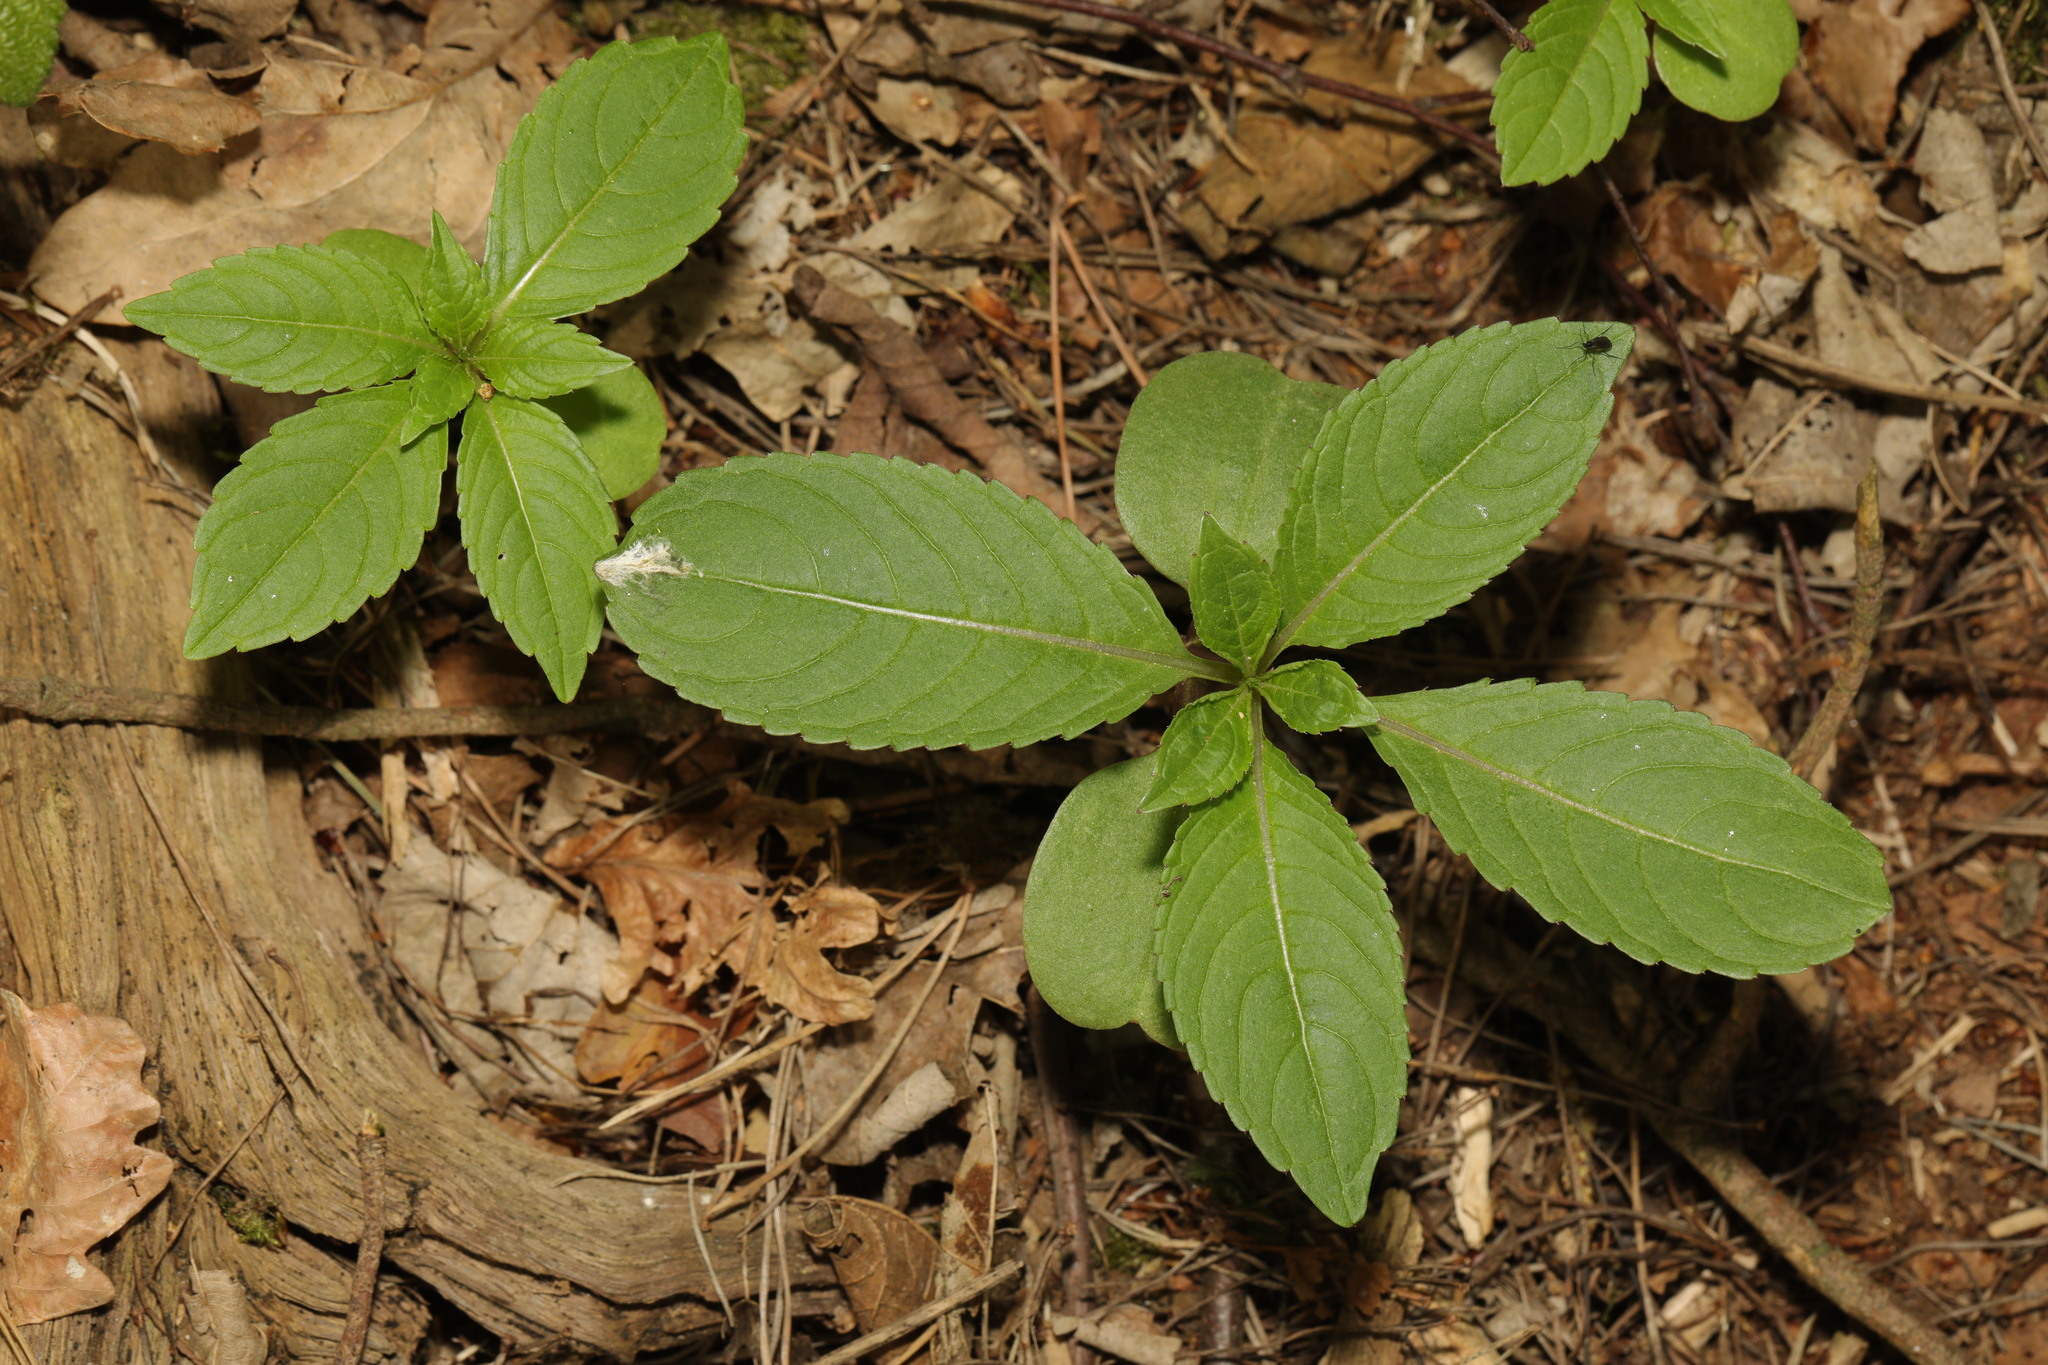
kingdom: Plantae
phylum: Tracheophyta
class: Magnoliopsida
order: Ericales
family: Balsaminaceae
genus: Impatiens
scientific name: Impatiens parviflora
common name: Small balsam
